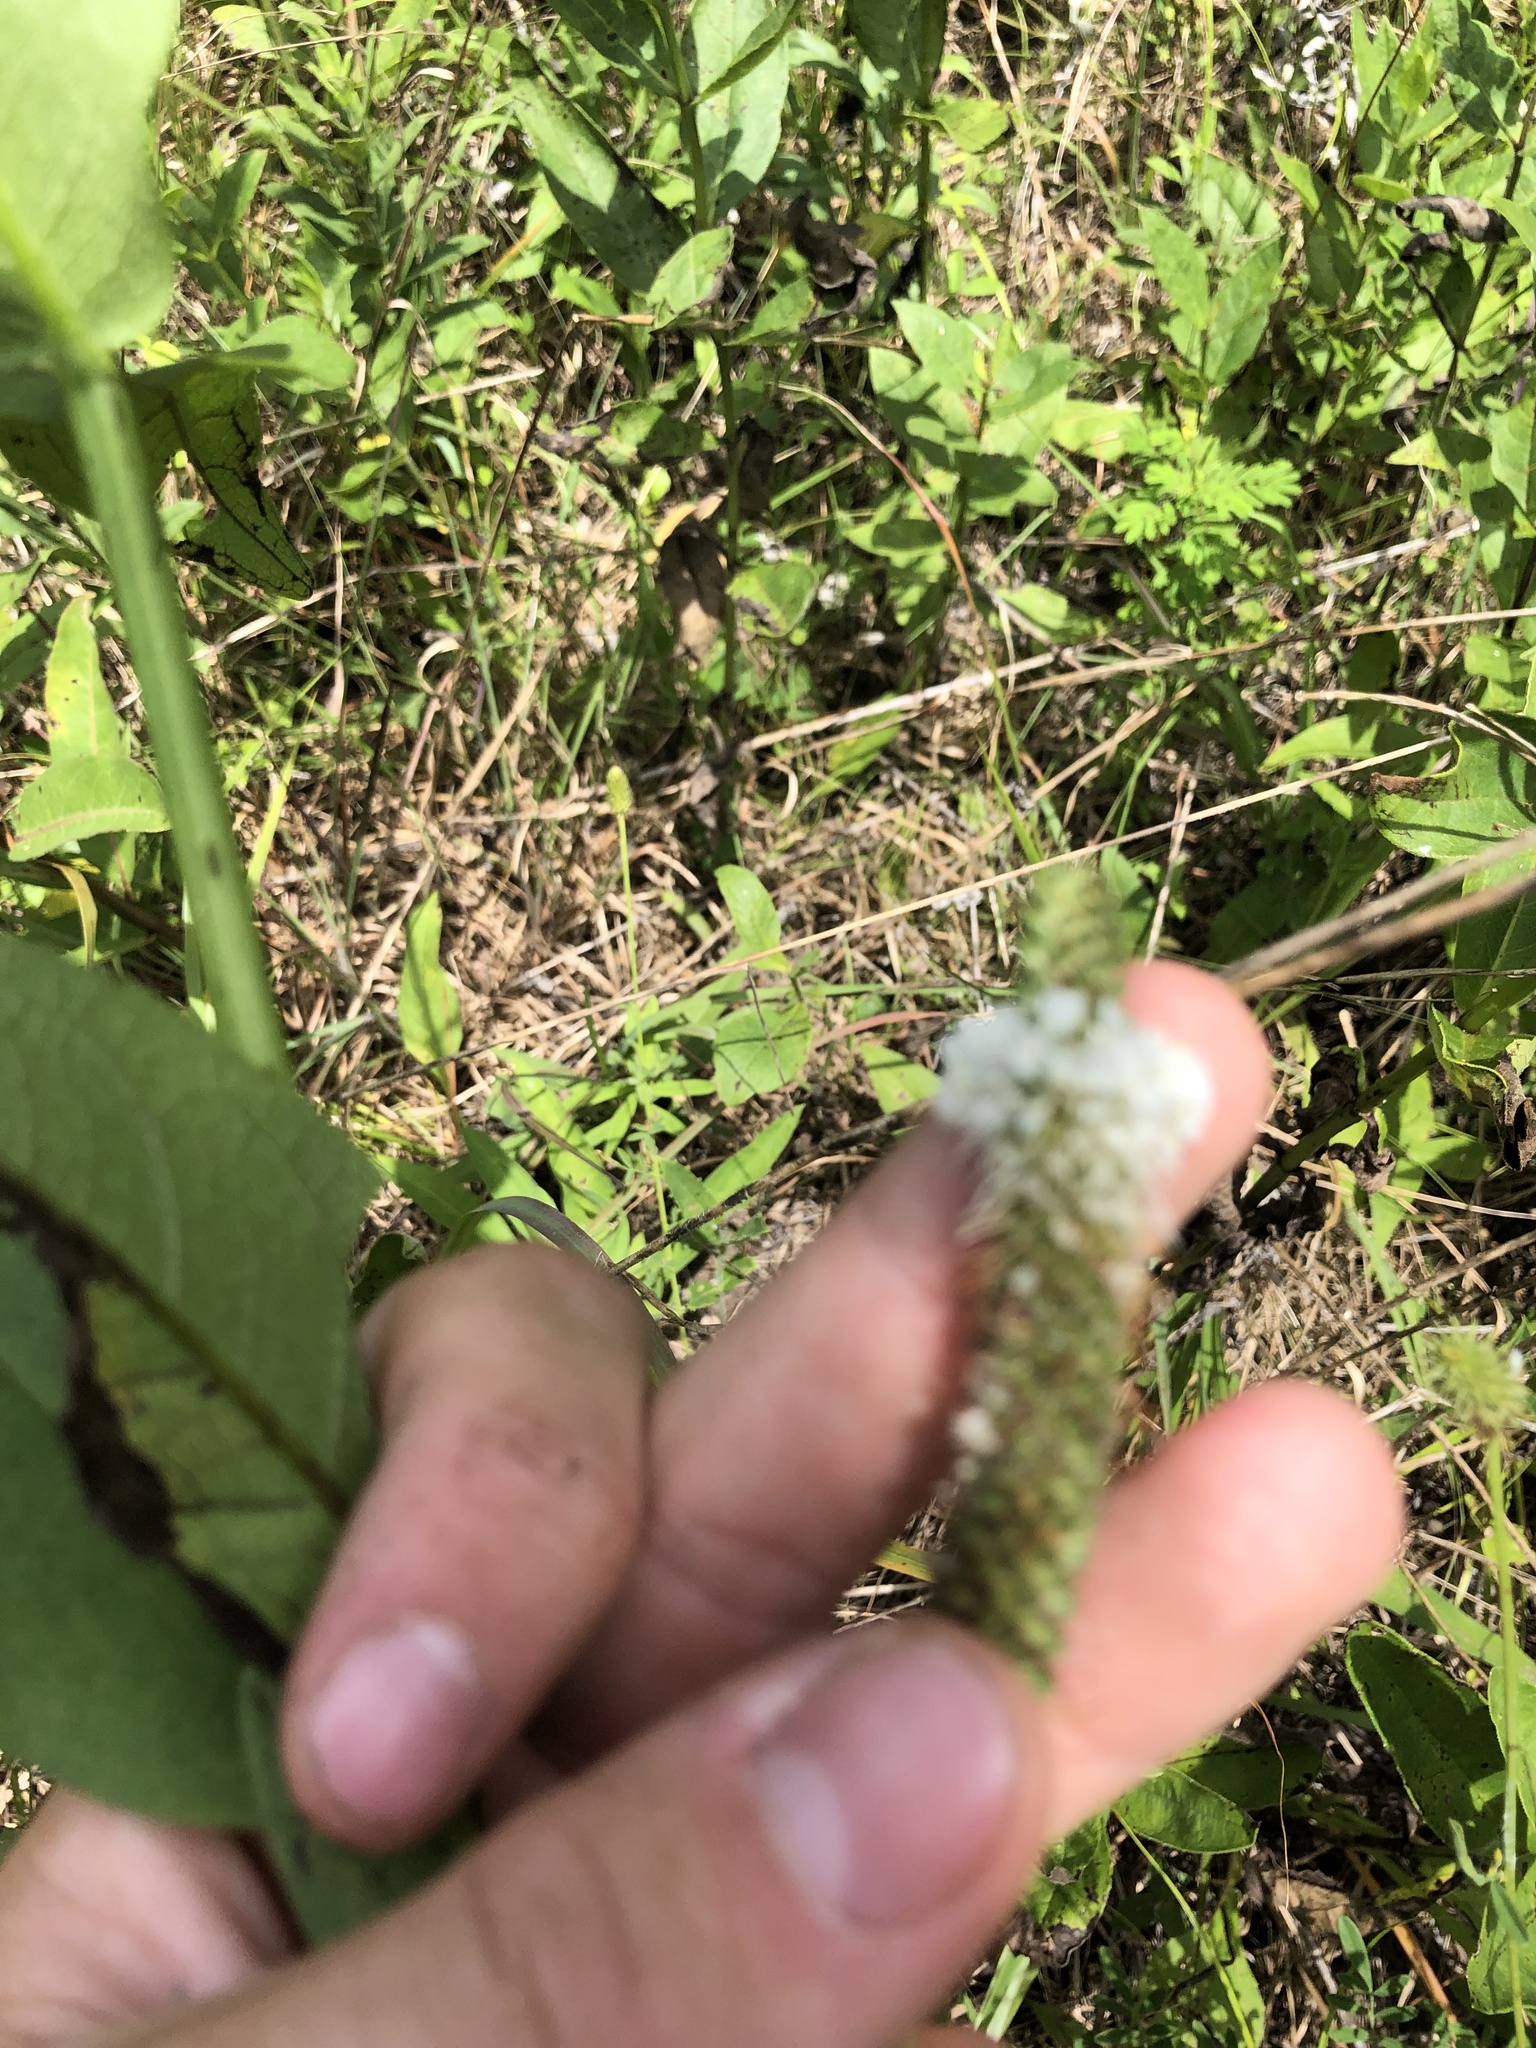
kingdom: Plantae
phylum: Tracheophyta
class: Magnoliopsida
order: Fabales
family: Fabaceae
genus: Dalea
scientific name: Dalea candida
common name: White prairie-clover
